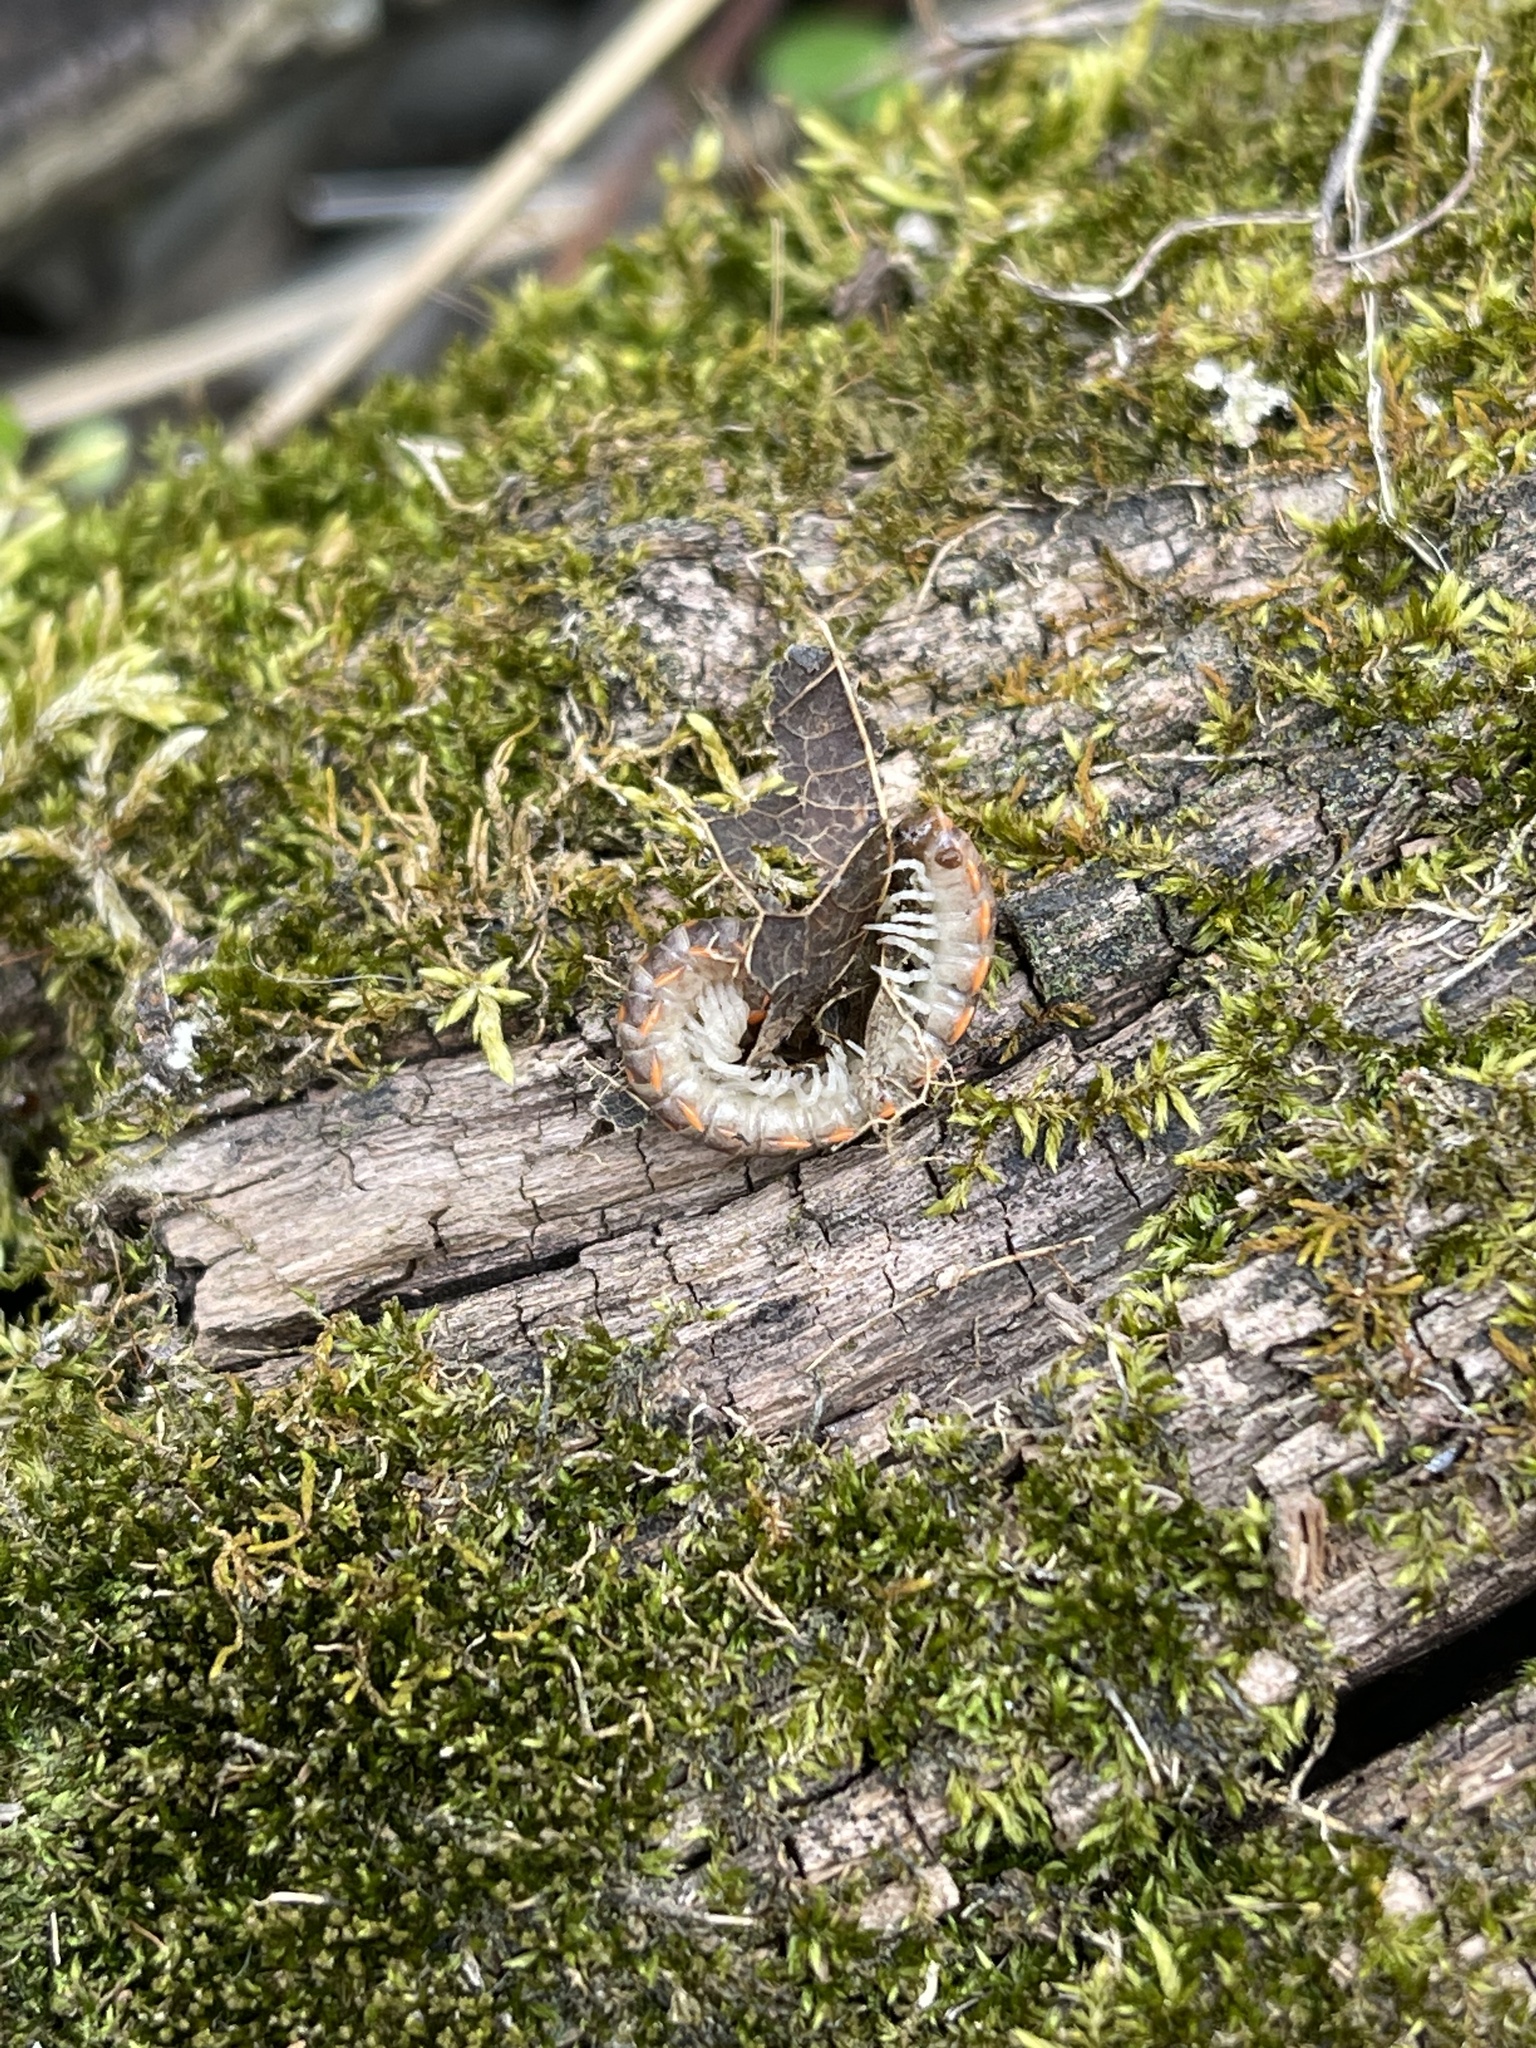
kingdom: Animalia
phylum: Arthropoda
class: Diplopoda
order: Polydesmida
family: Xystodesmidae
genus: Euryurus
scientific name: Euryurus leachii
